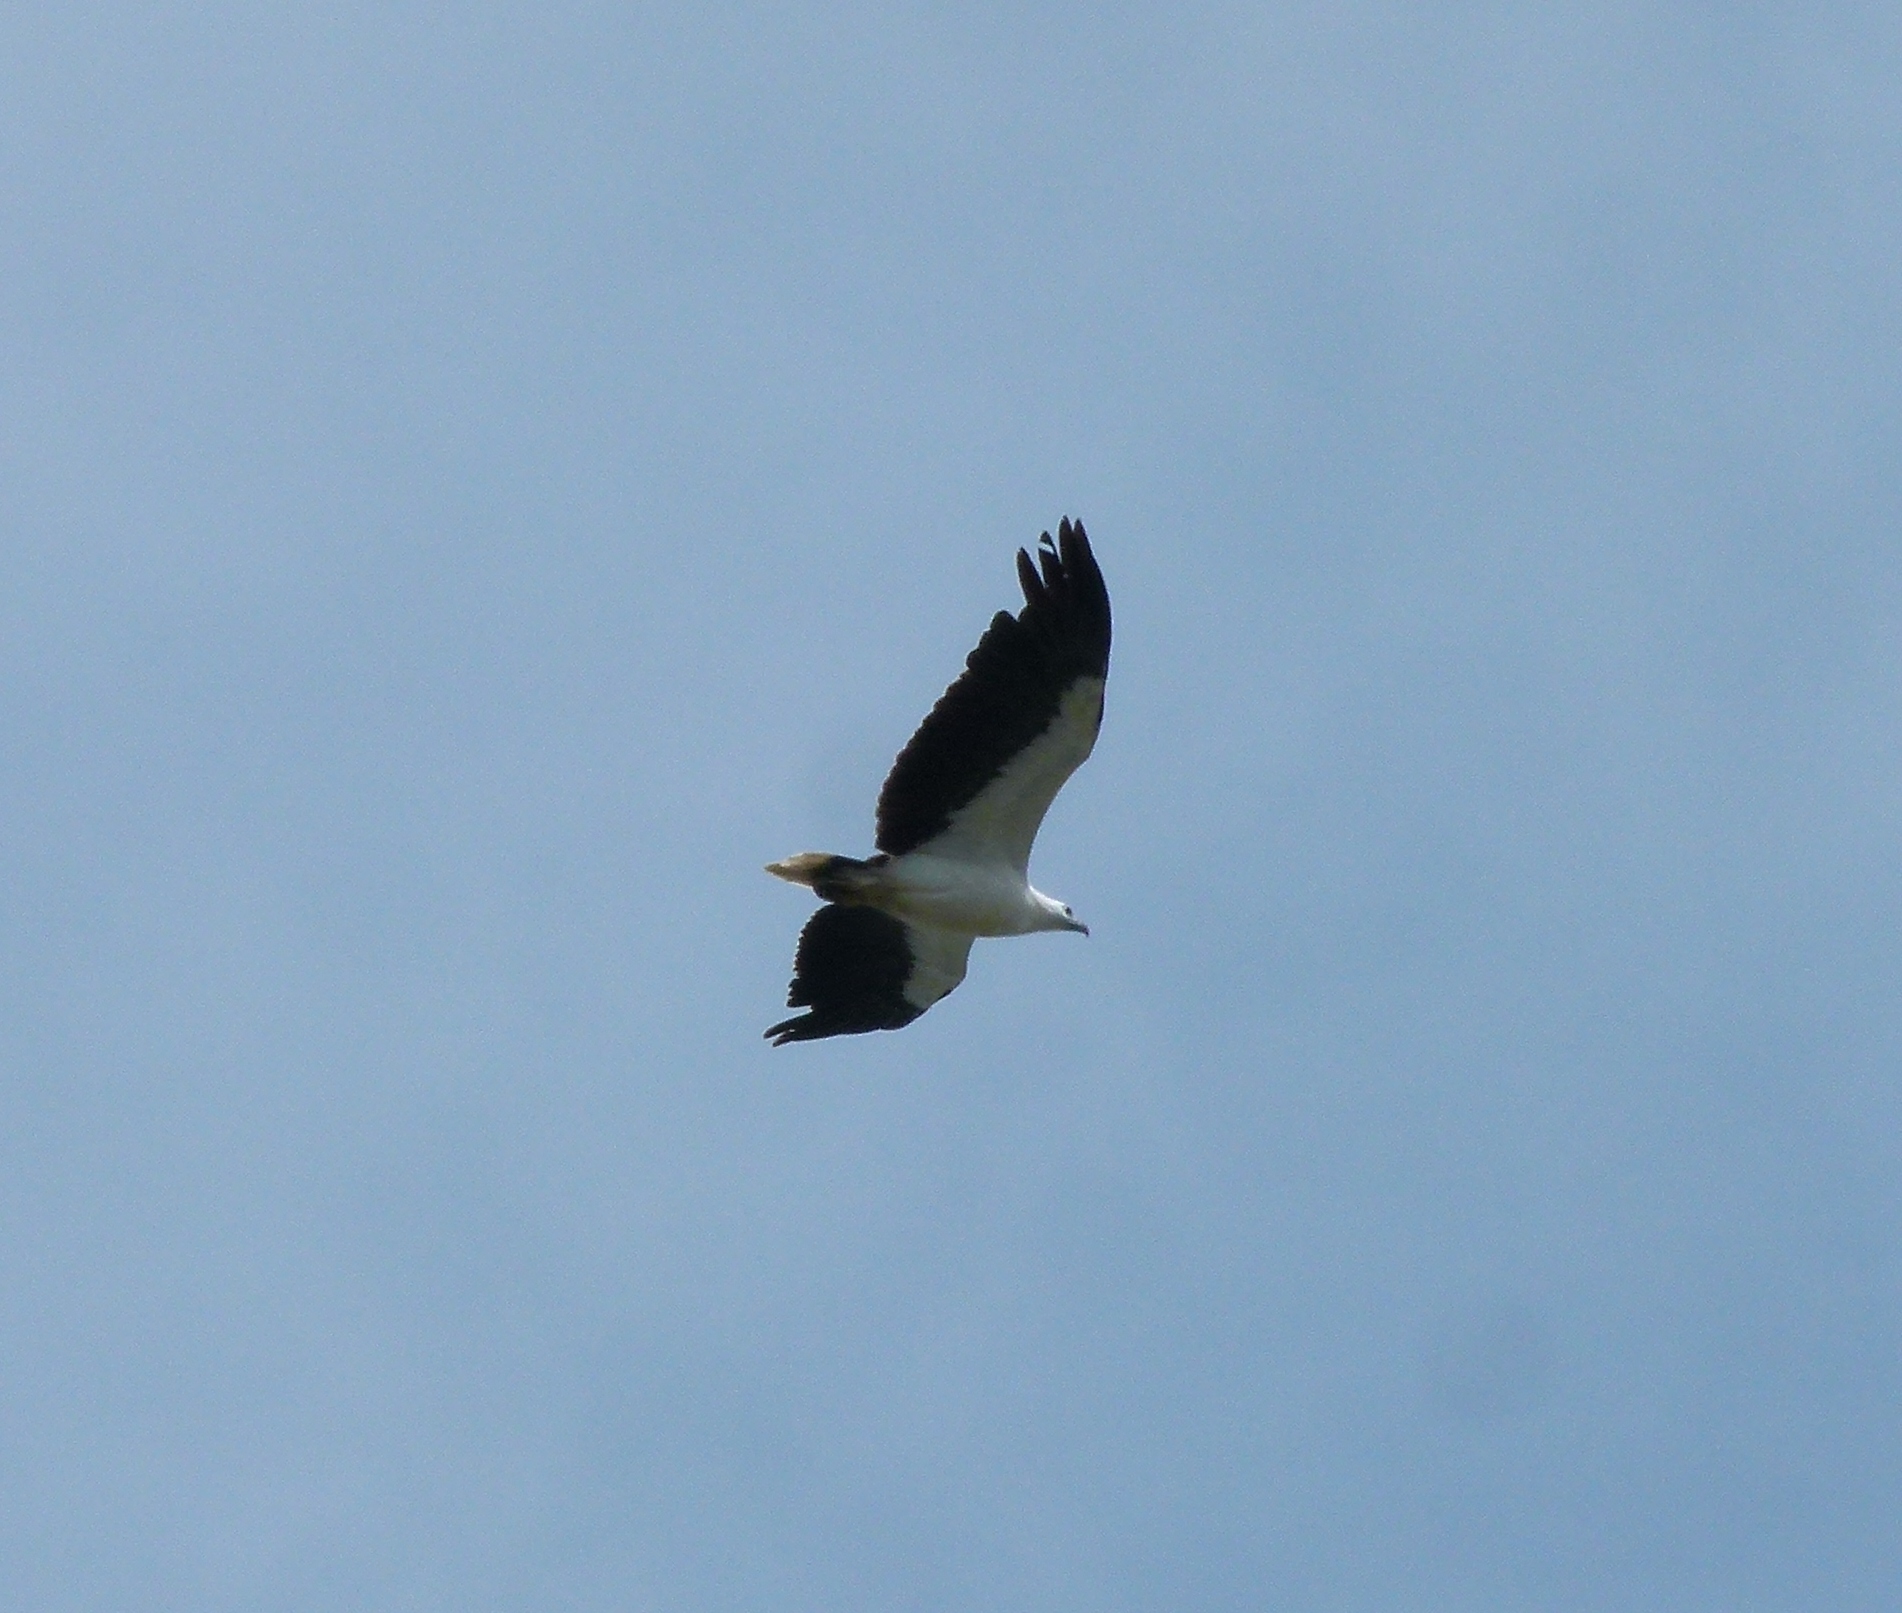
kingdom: Animalia
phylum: Chordata
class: Aves
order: Accipitriformes
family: Accipitridae
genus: Haliaeetus
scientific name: Haliaeetus leucogaster
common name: White-bellied sea eagle
